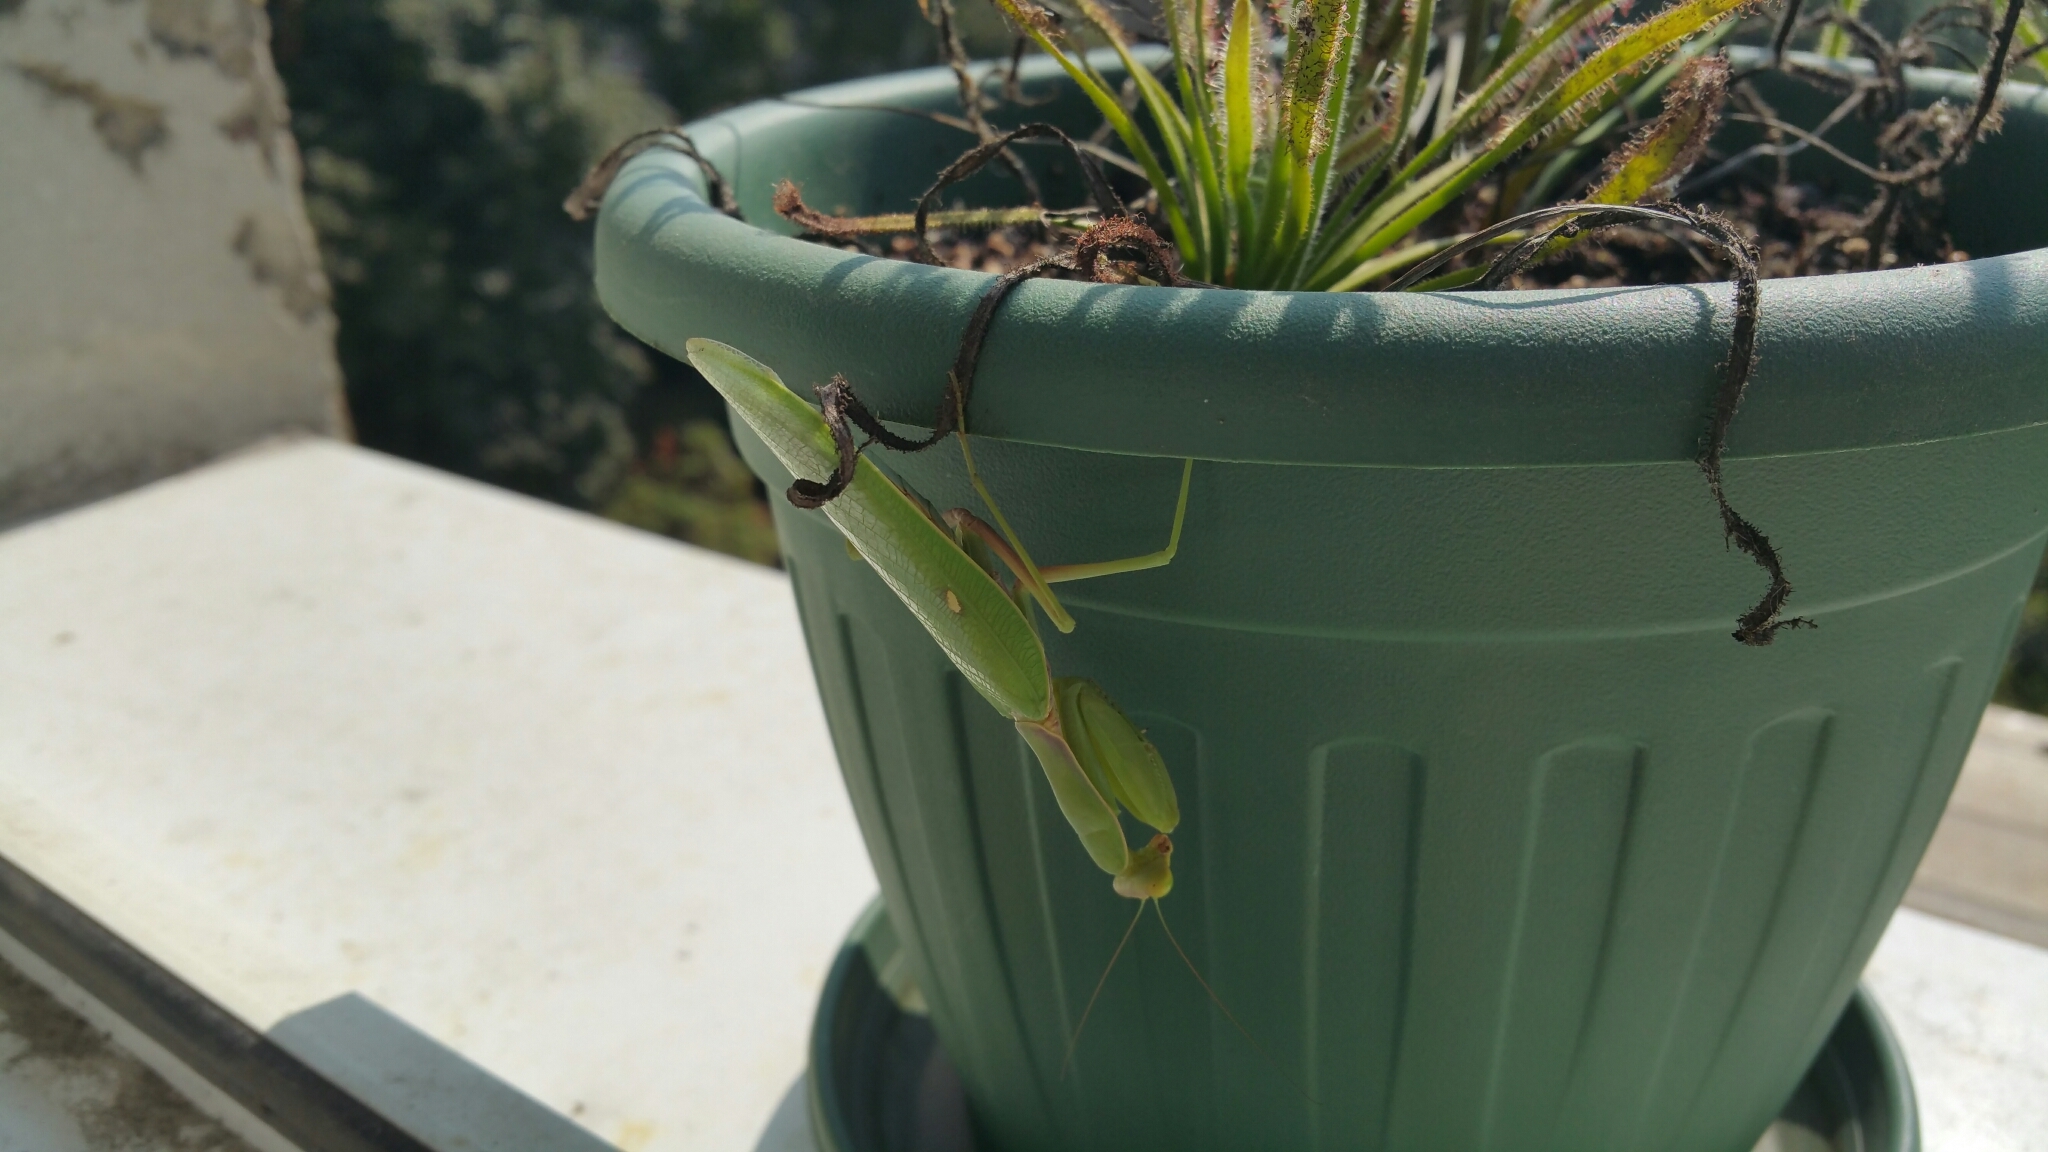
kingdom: Animalia
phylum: Arthropoda
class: Insecta
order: Mantodea
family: Mantidae
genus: Hierodula
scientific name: Hierodula transcaucasica
